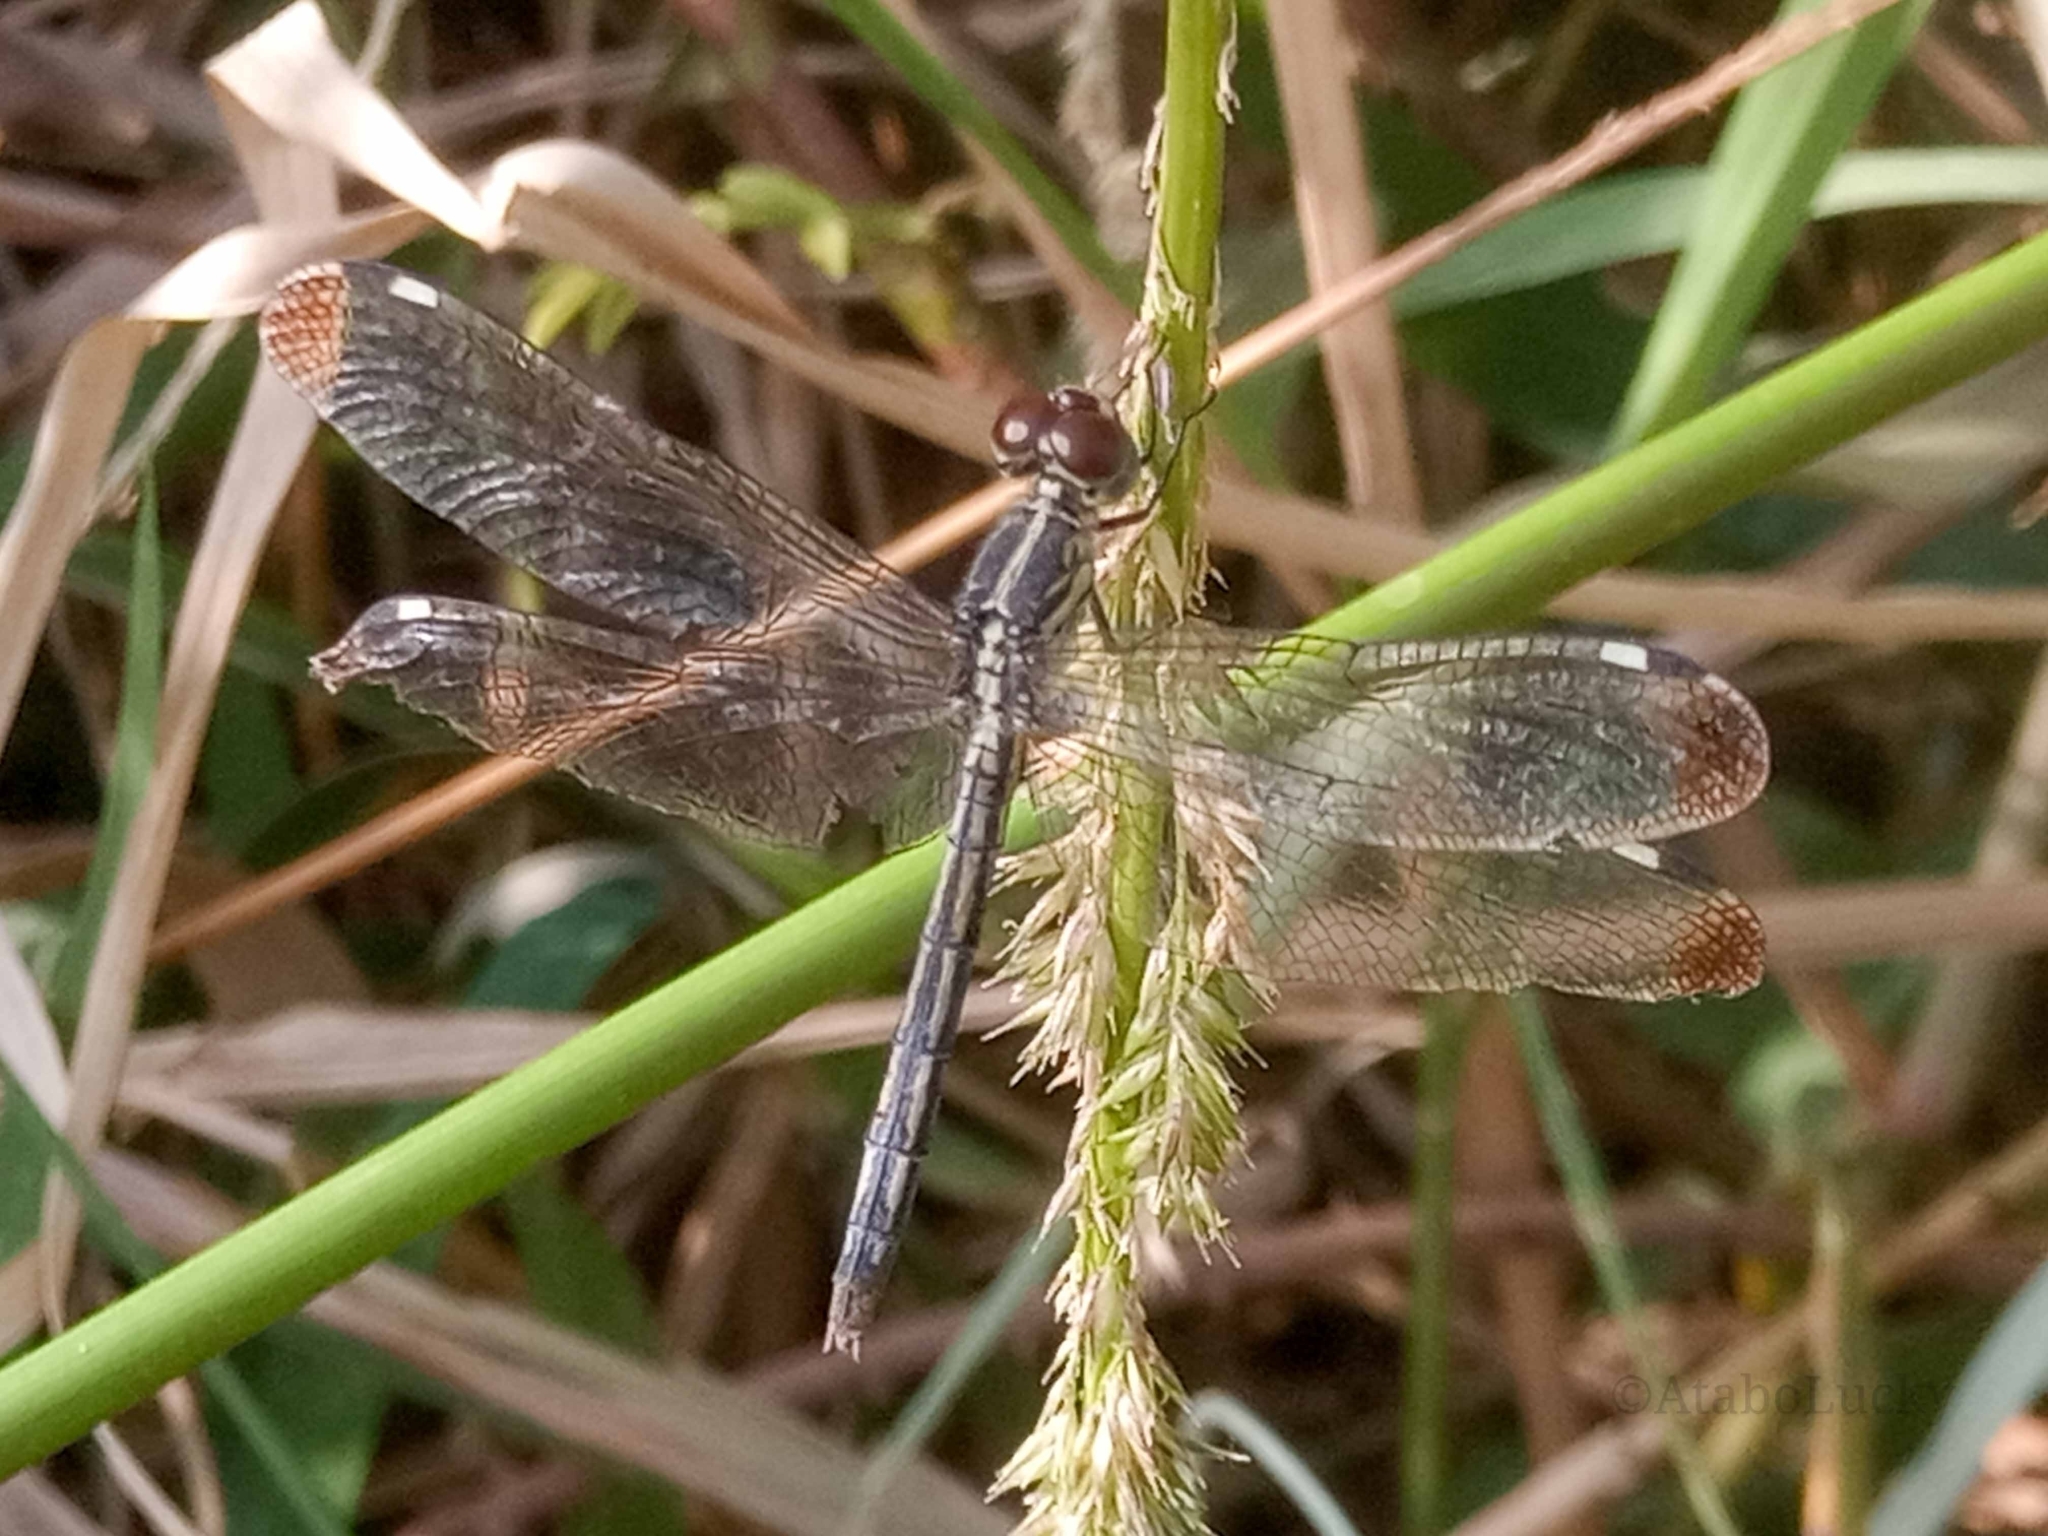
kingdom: Animalia
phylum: Arthropoda
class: Insecta
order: Odonata
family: Libellulidae
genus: Hemistigma
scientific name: Hemistigma albipunctum
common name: African pied-spot
